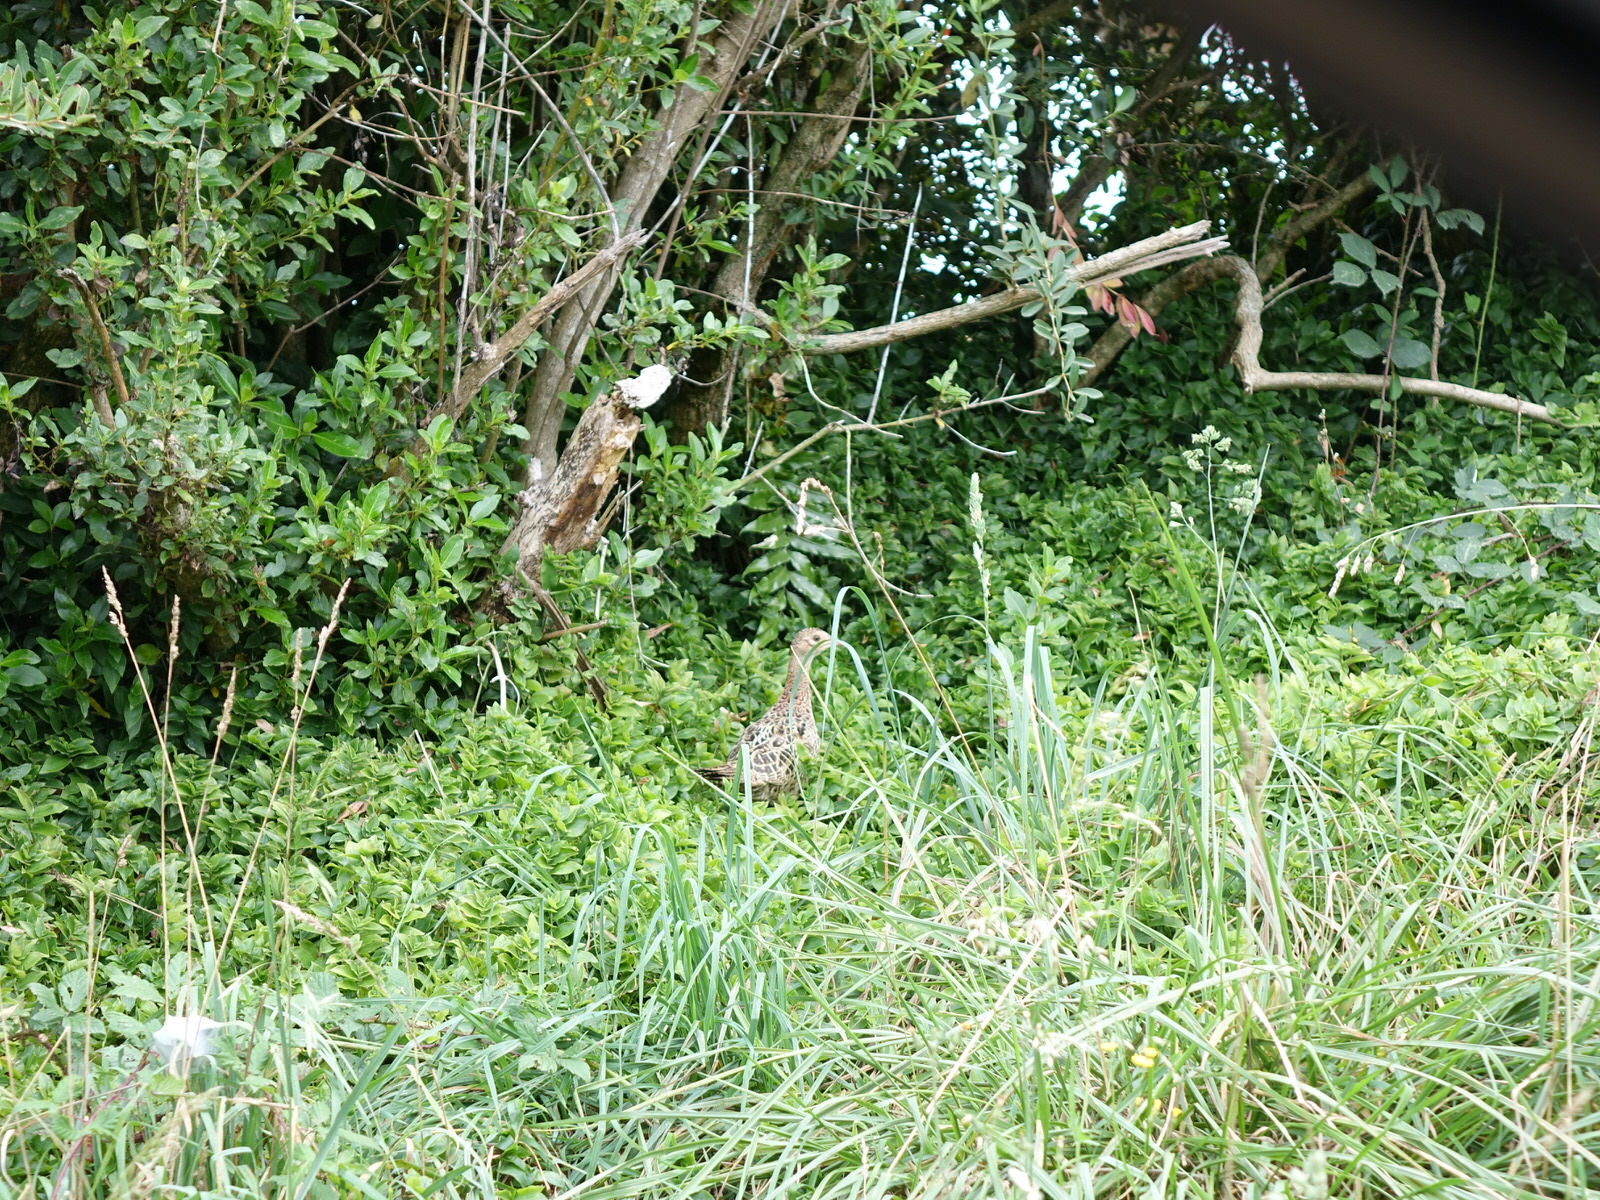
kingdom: Animalia
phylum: Chordata
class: Aves
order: Galliformes
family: Phasianidae
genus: Phasianus
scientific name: Phasianus colchicus
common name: Common pheasant
